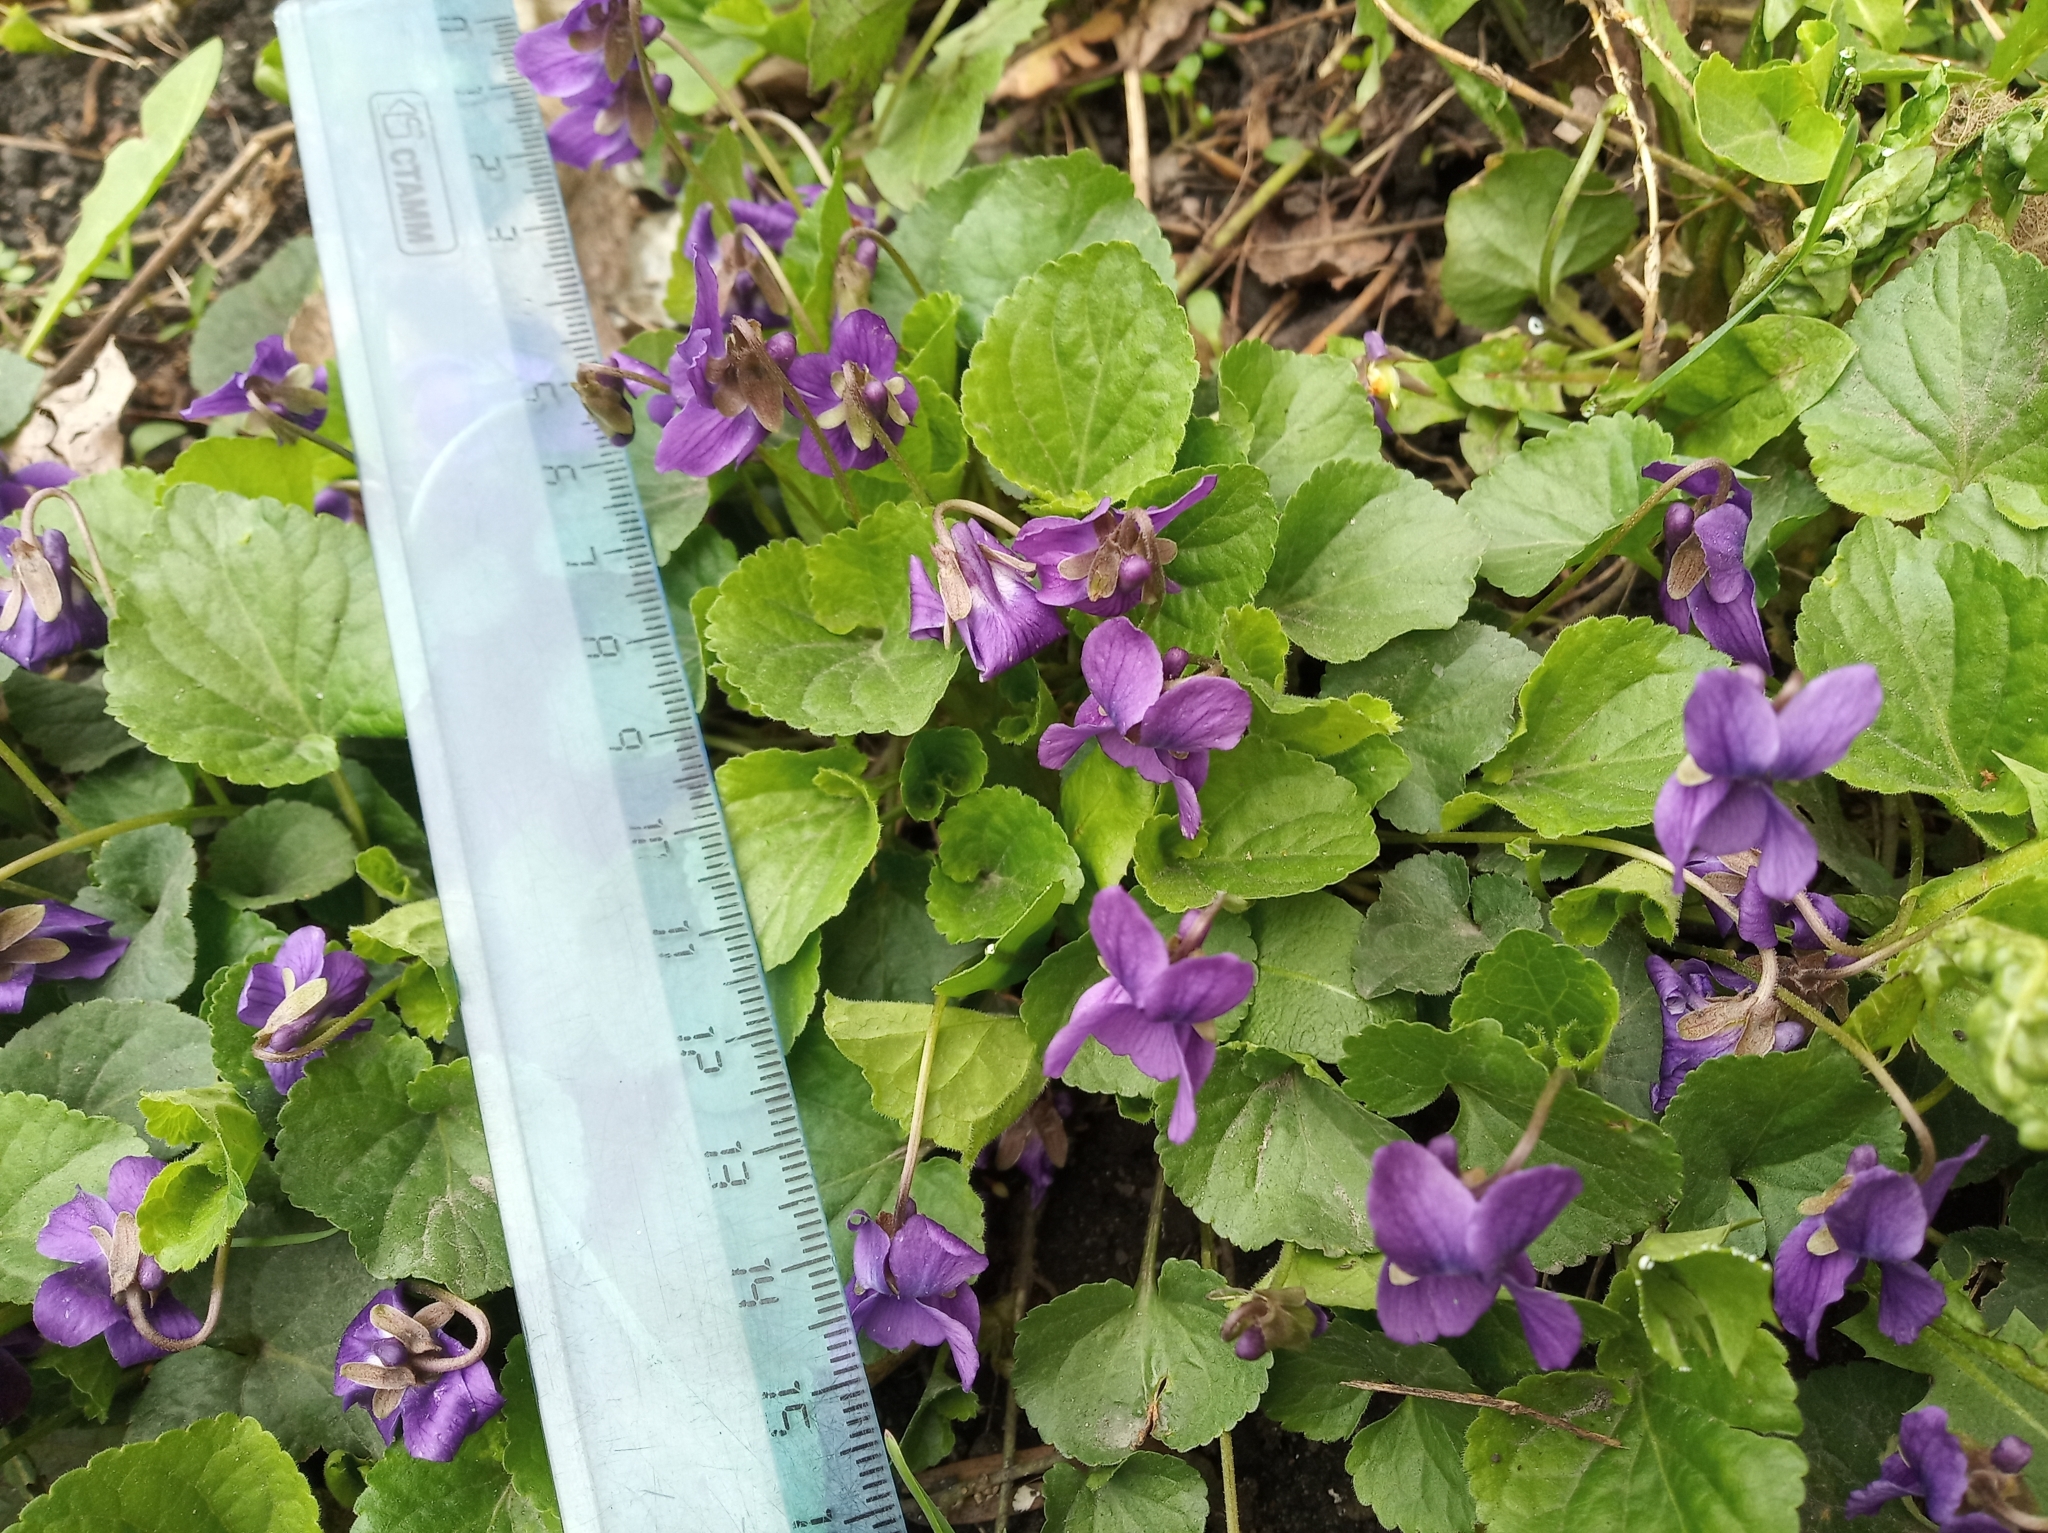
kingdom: Plantae
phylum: Tracheophyta
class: Magnoliopsida
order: Malpighiales
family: Violaceae
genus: Viola
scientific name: Viola odorata
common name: Sweet violet
